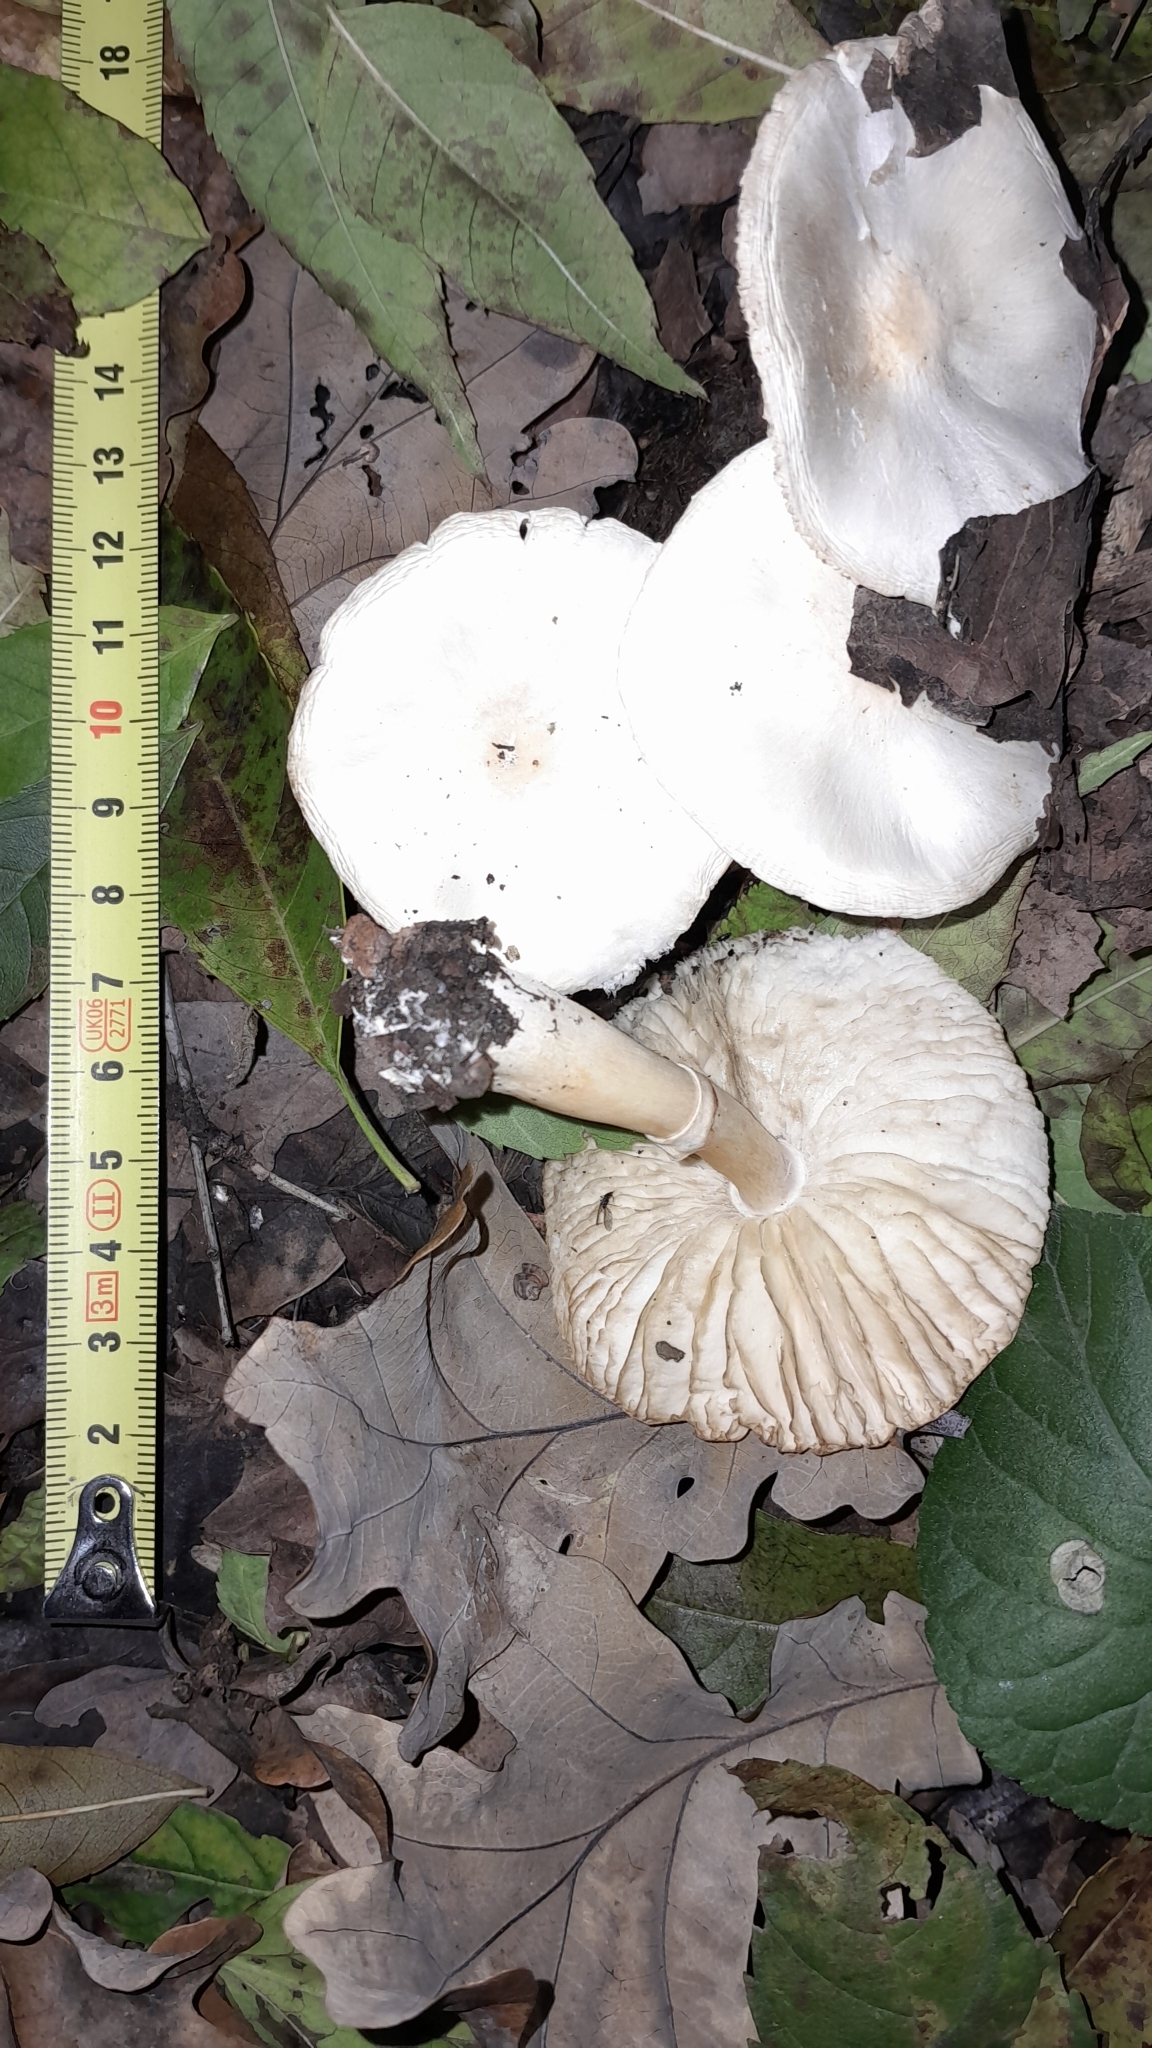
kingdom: Fungi
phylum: Basidiomycota
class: Agaricomycetes
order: Agaricales
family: Agaricaceae
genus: Leucoagaricus
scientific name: Leucoagaricus leucothites
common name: White dapperling
